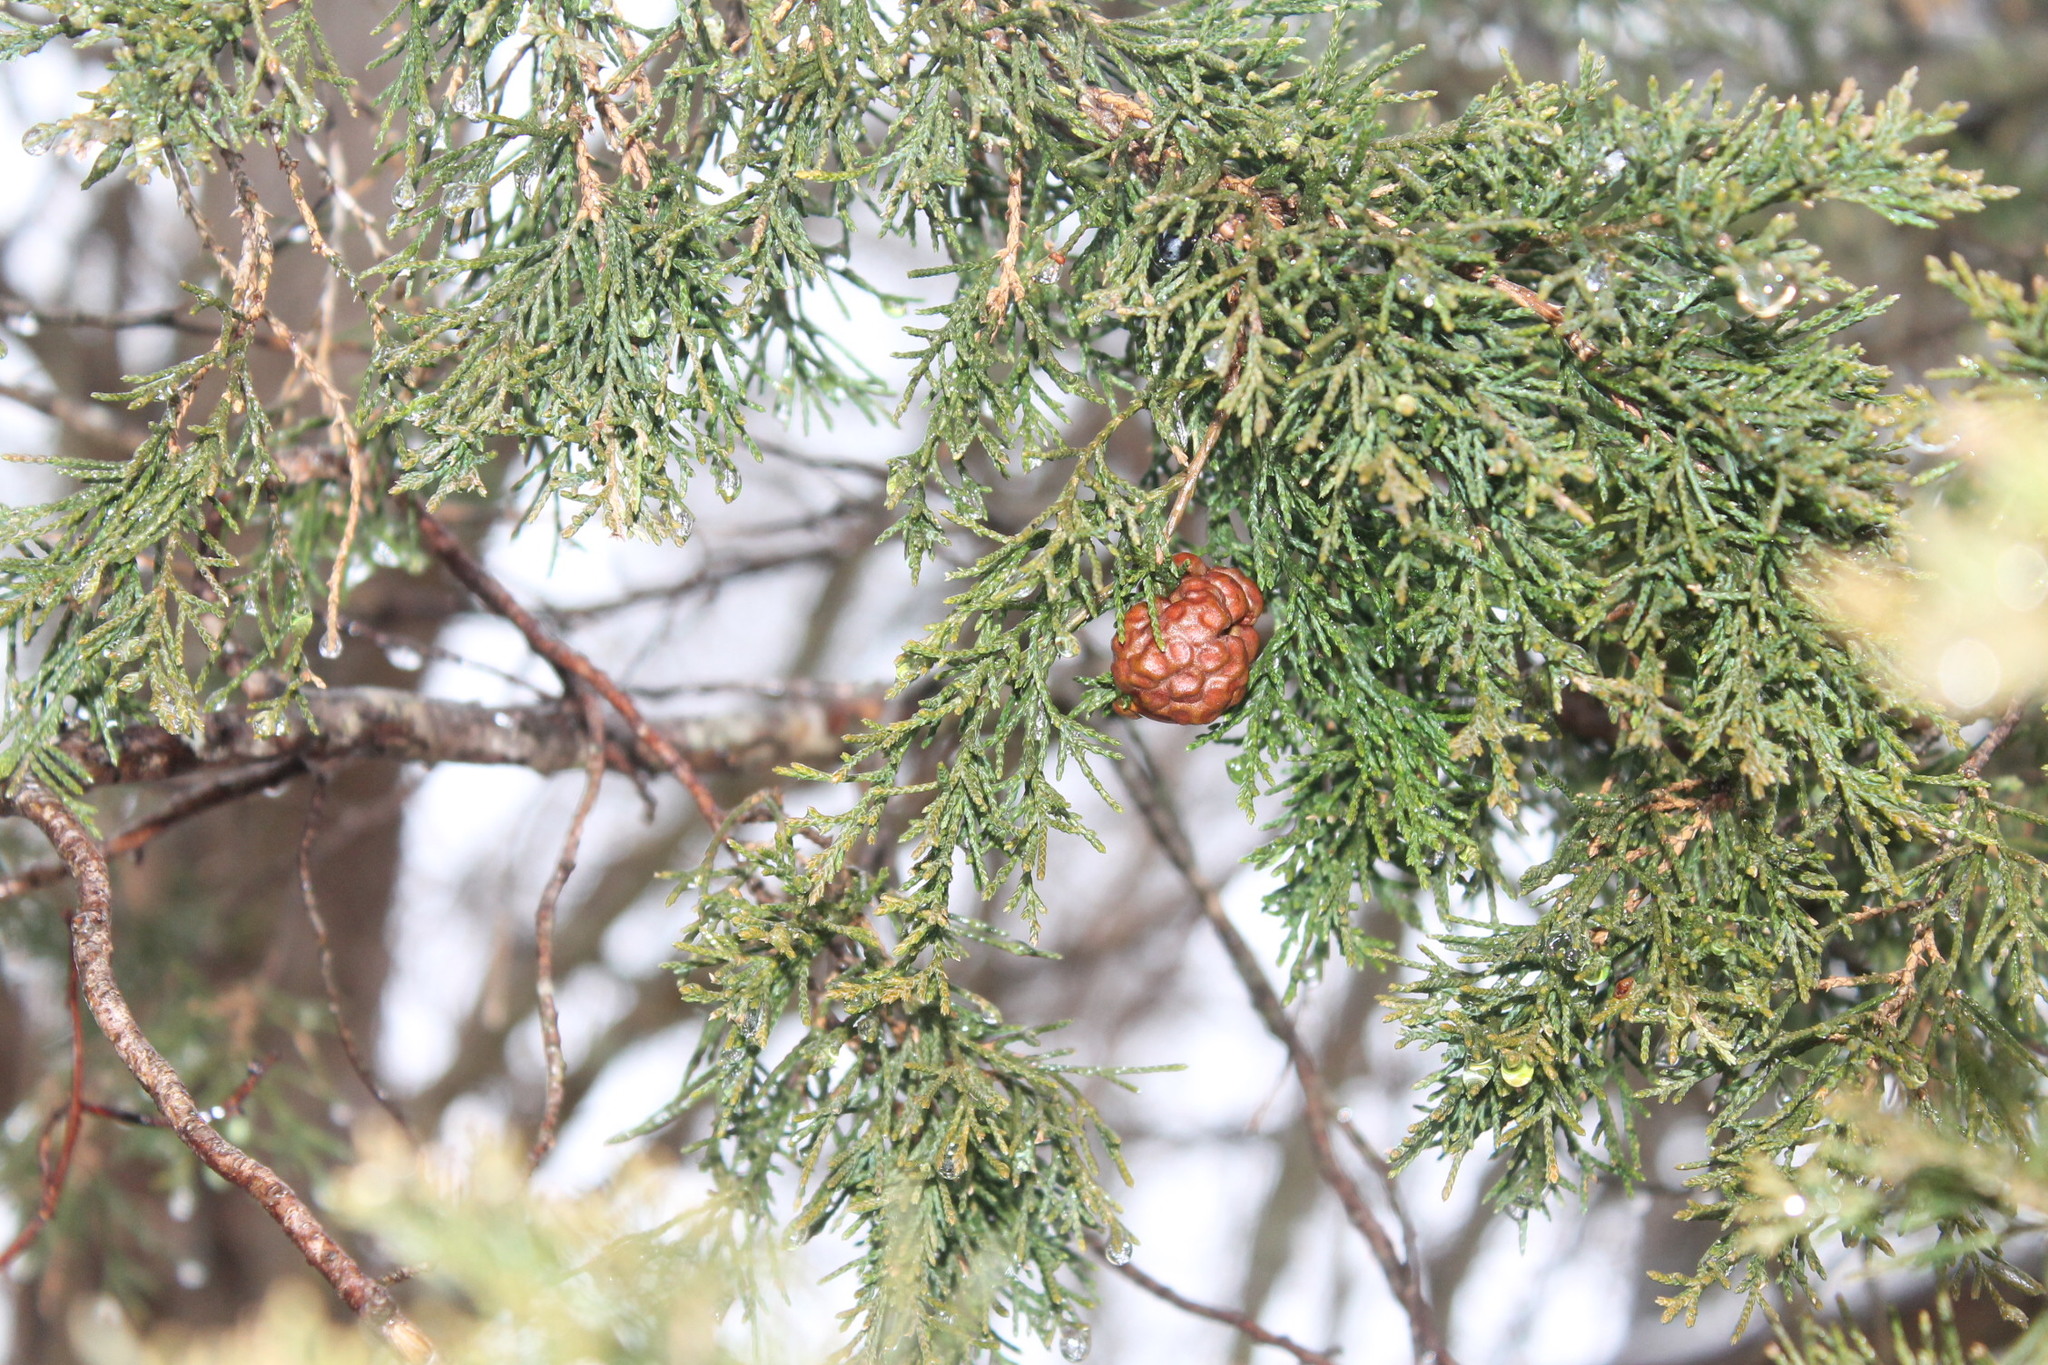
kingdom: Fungi
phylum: Basidiomycota
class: Pucciniomycetes
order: Pucciniales
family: Gymnosporangiaceae
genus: Gymnosporangium
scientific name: Gymnosporangium juniperi-virginianae
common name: Juniper-apple rust
